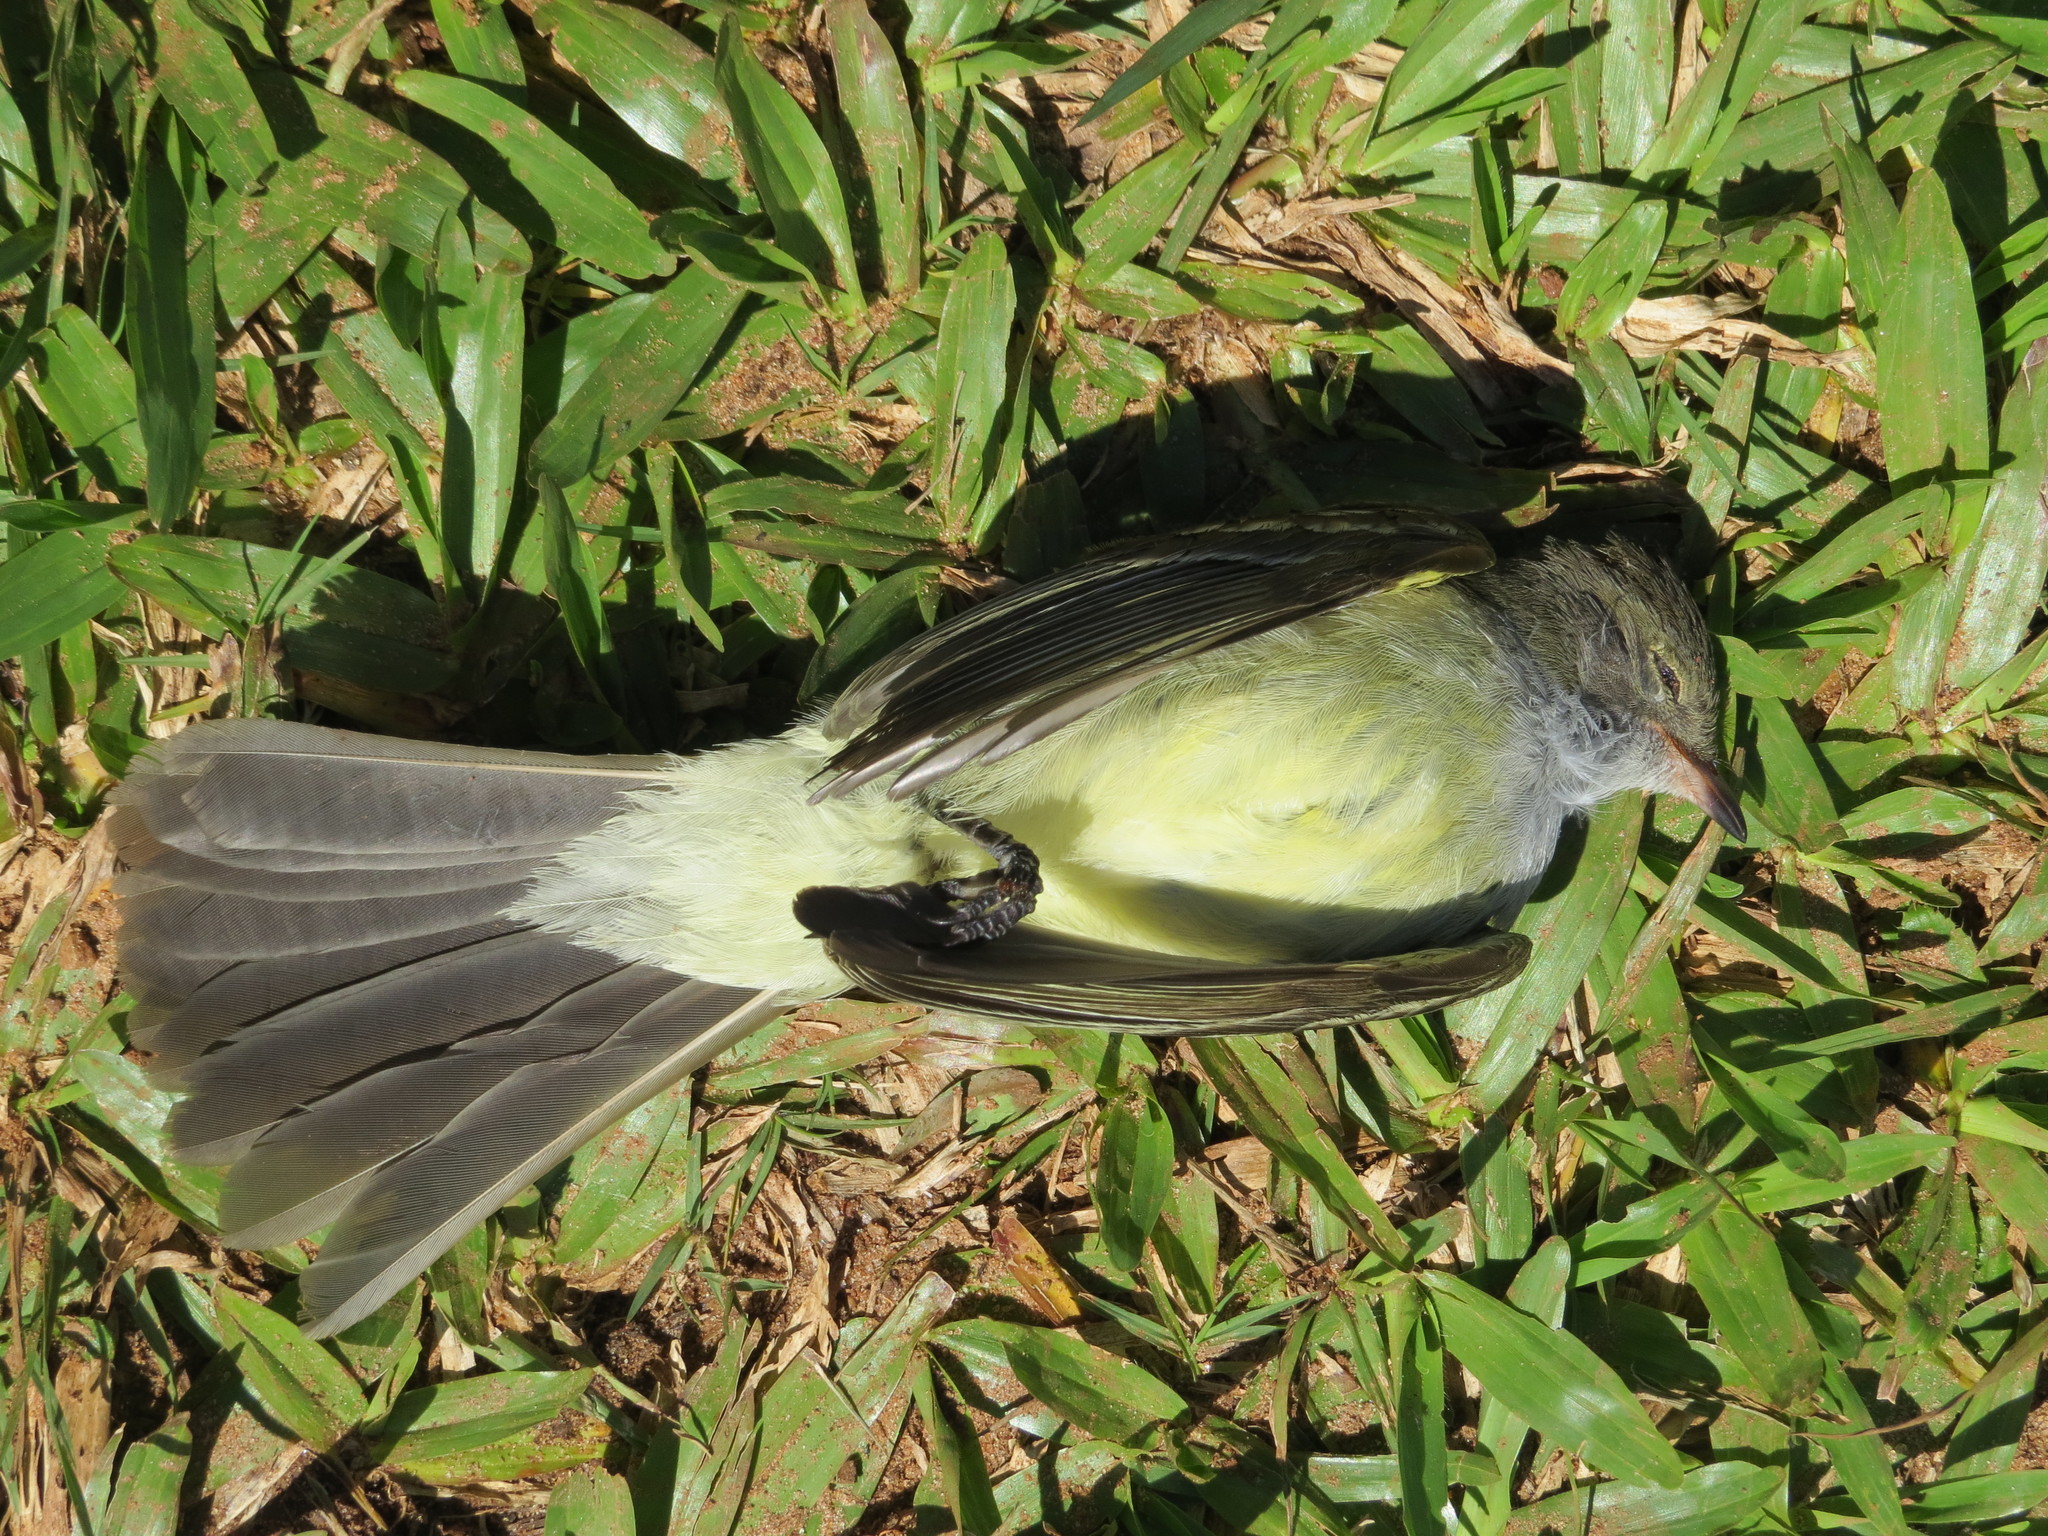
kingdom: Animalia
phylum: Chordata
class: Aves
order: Passeriformes
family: Tyrannidae
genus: Elaenia
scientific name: Elaenia spectabilis
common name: Large elaenia
